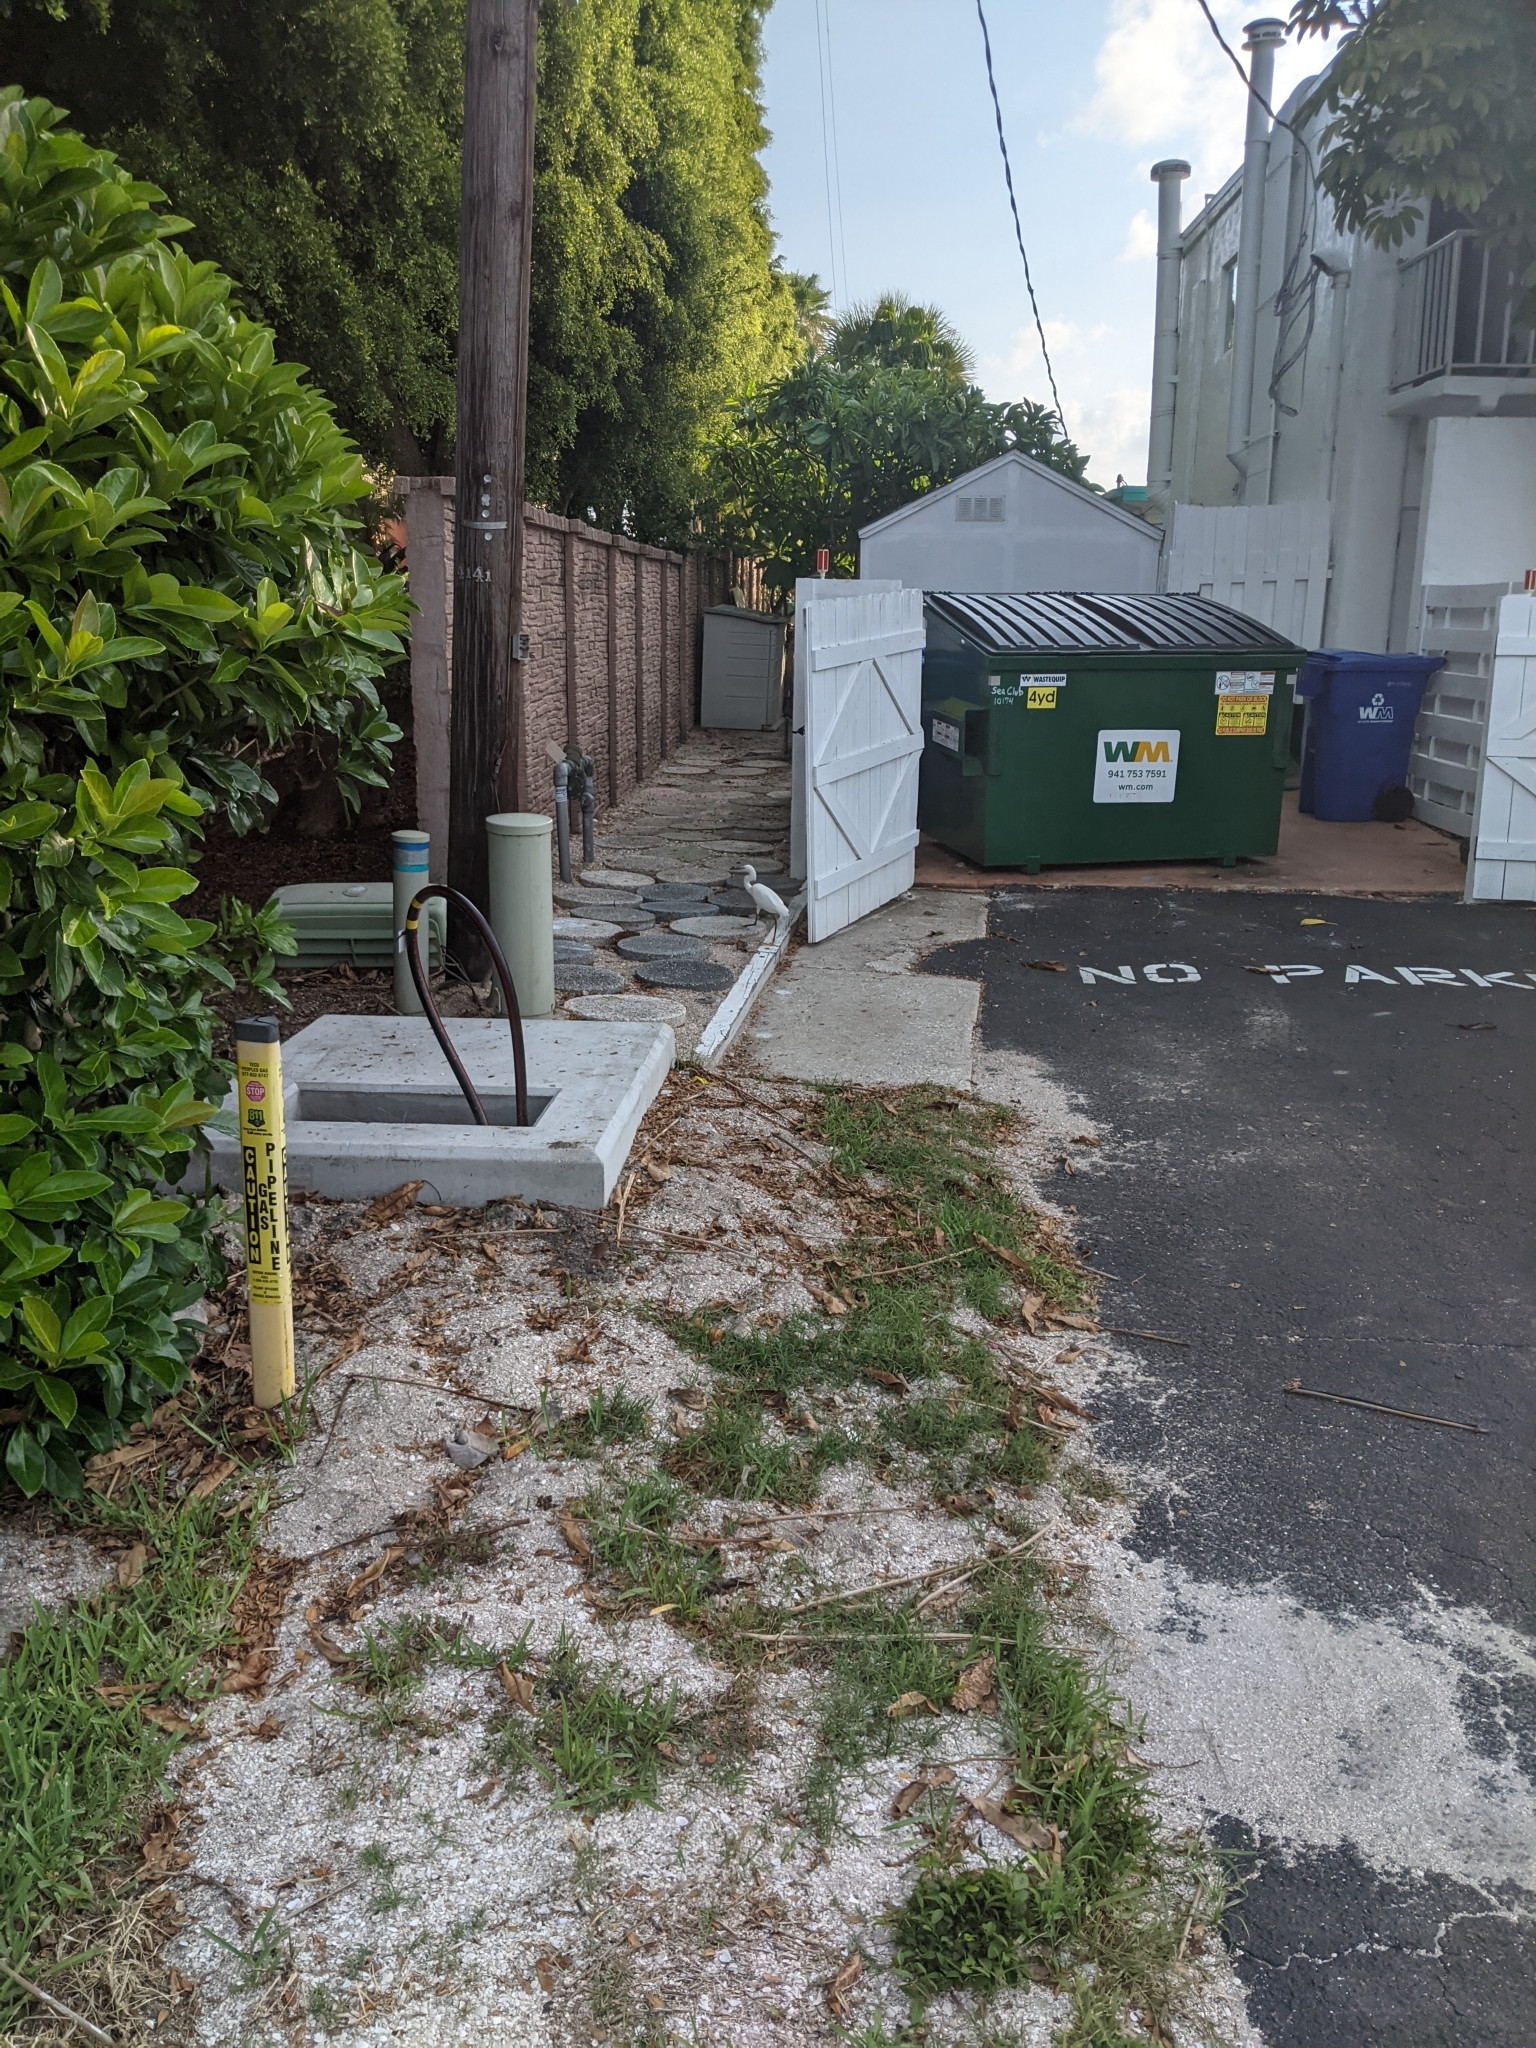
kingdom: Animalia
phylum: Chordata
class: Aves
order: Pelecaniformes
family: Ardeidae
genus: Egretta
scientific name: Egretta thula
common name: Snowy egret
